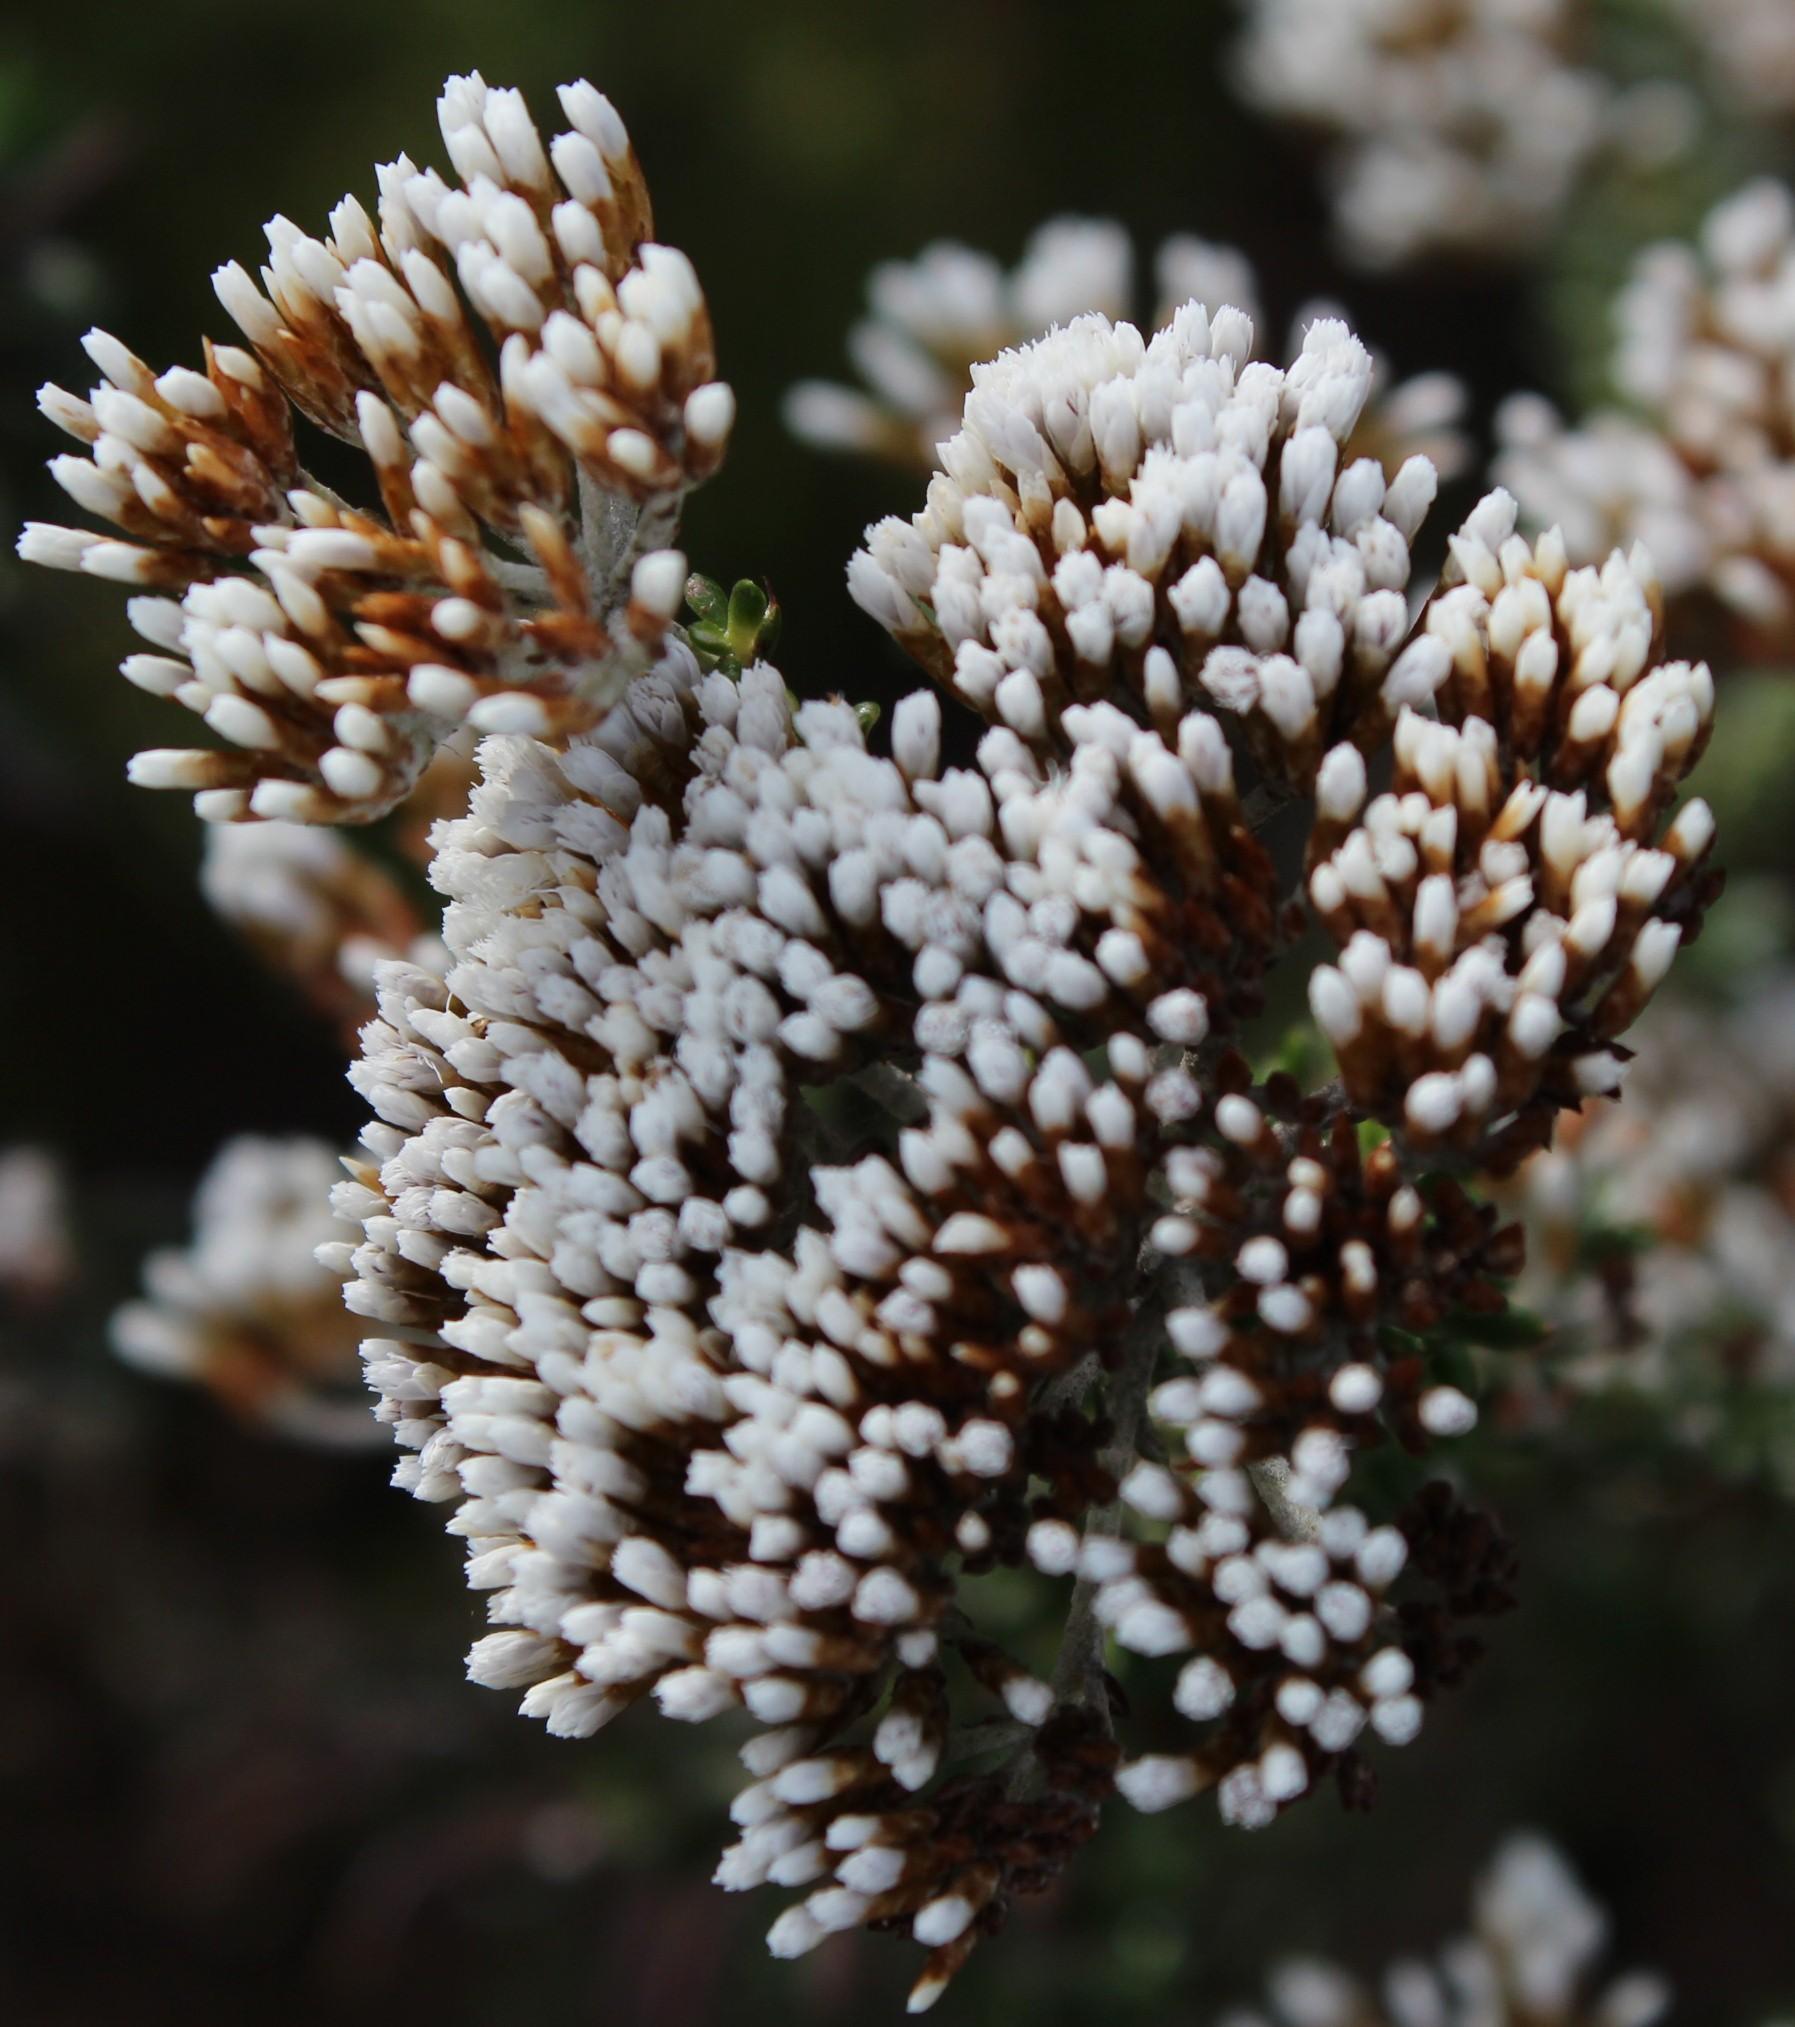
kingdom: Plantae
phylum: Tracheophyta
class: Magnoliopsida
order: Asterales
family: Asteraceae
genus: Metalasia
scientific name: Metalasia densa
